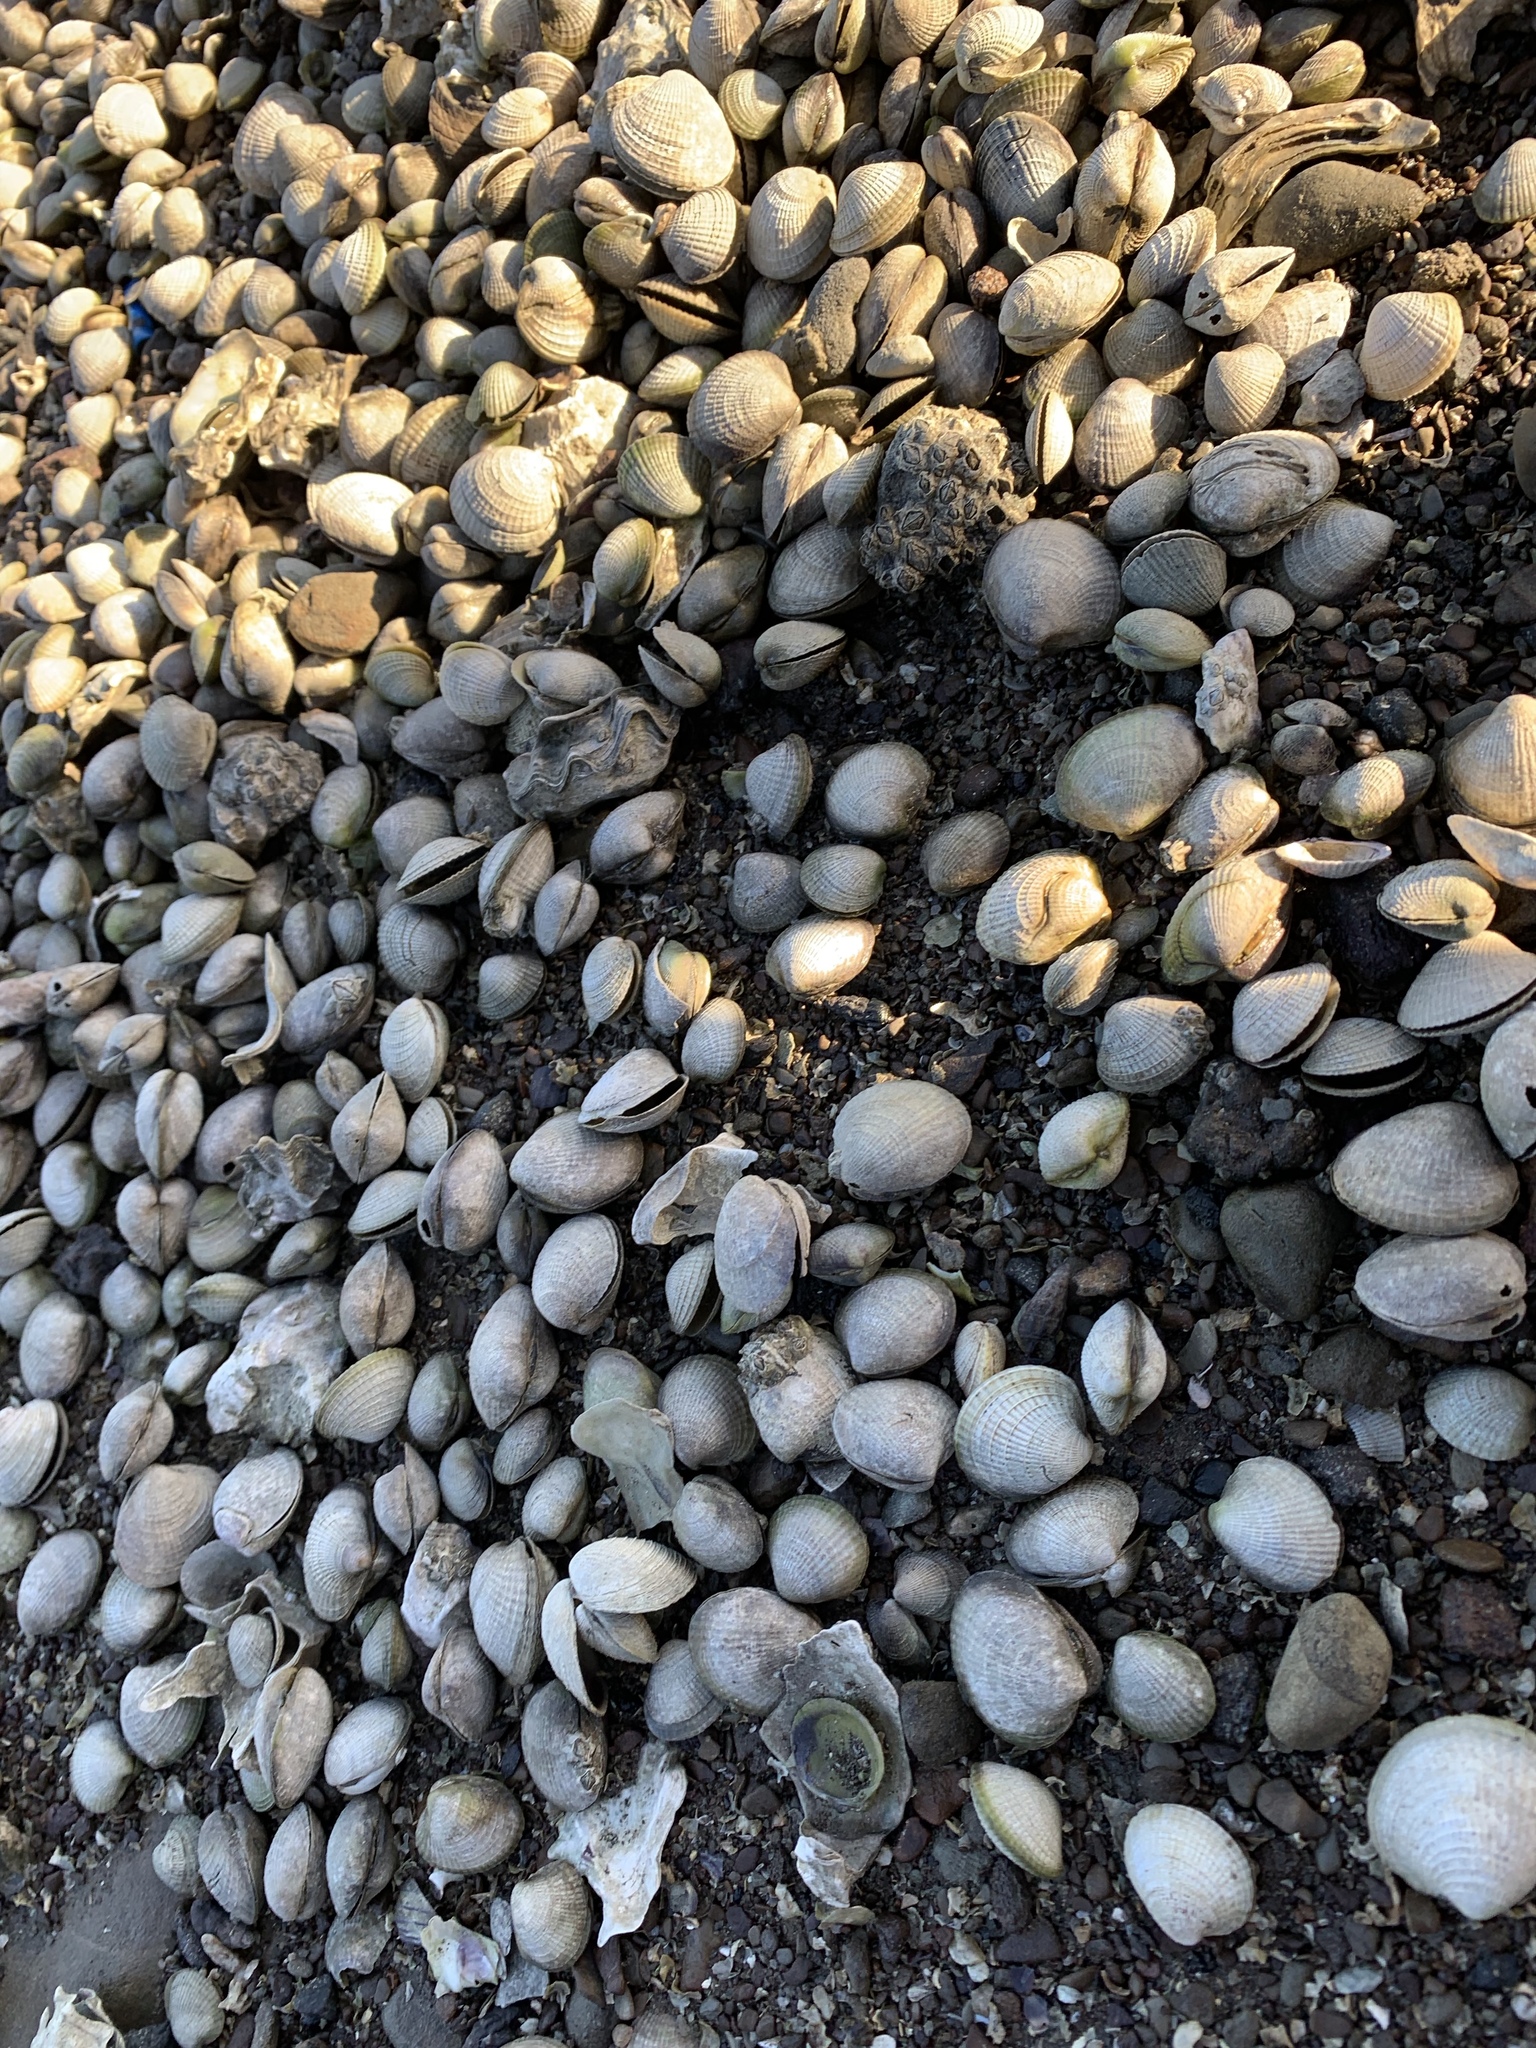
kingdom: Animalia
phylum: Mollusca
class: Bivalvia
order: Venerida
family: Veneridae
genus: Austrovenus
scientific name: Austrovenus stutchburyi
